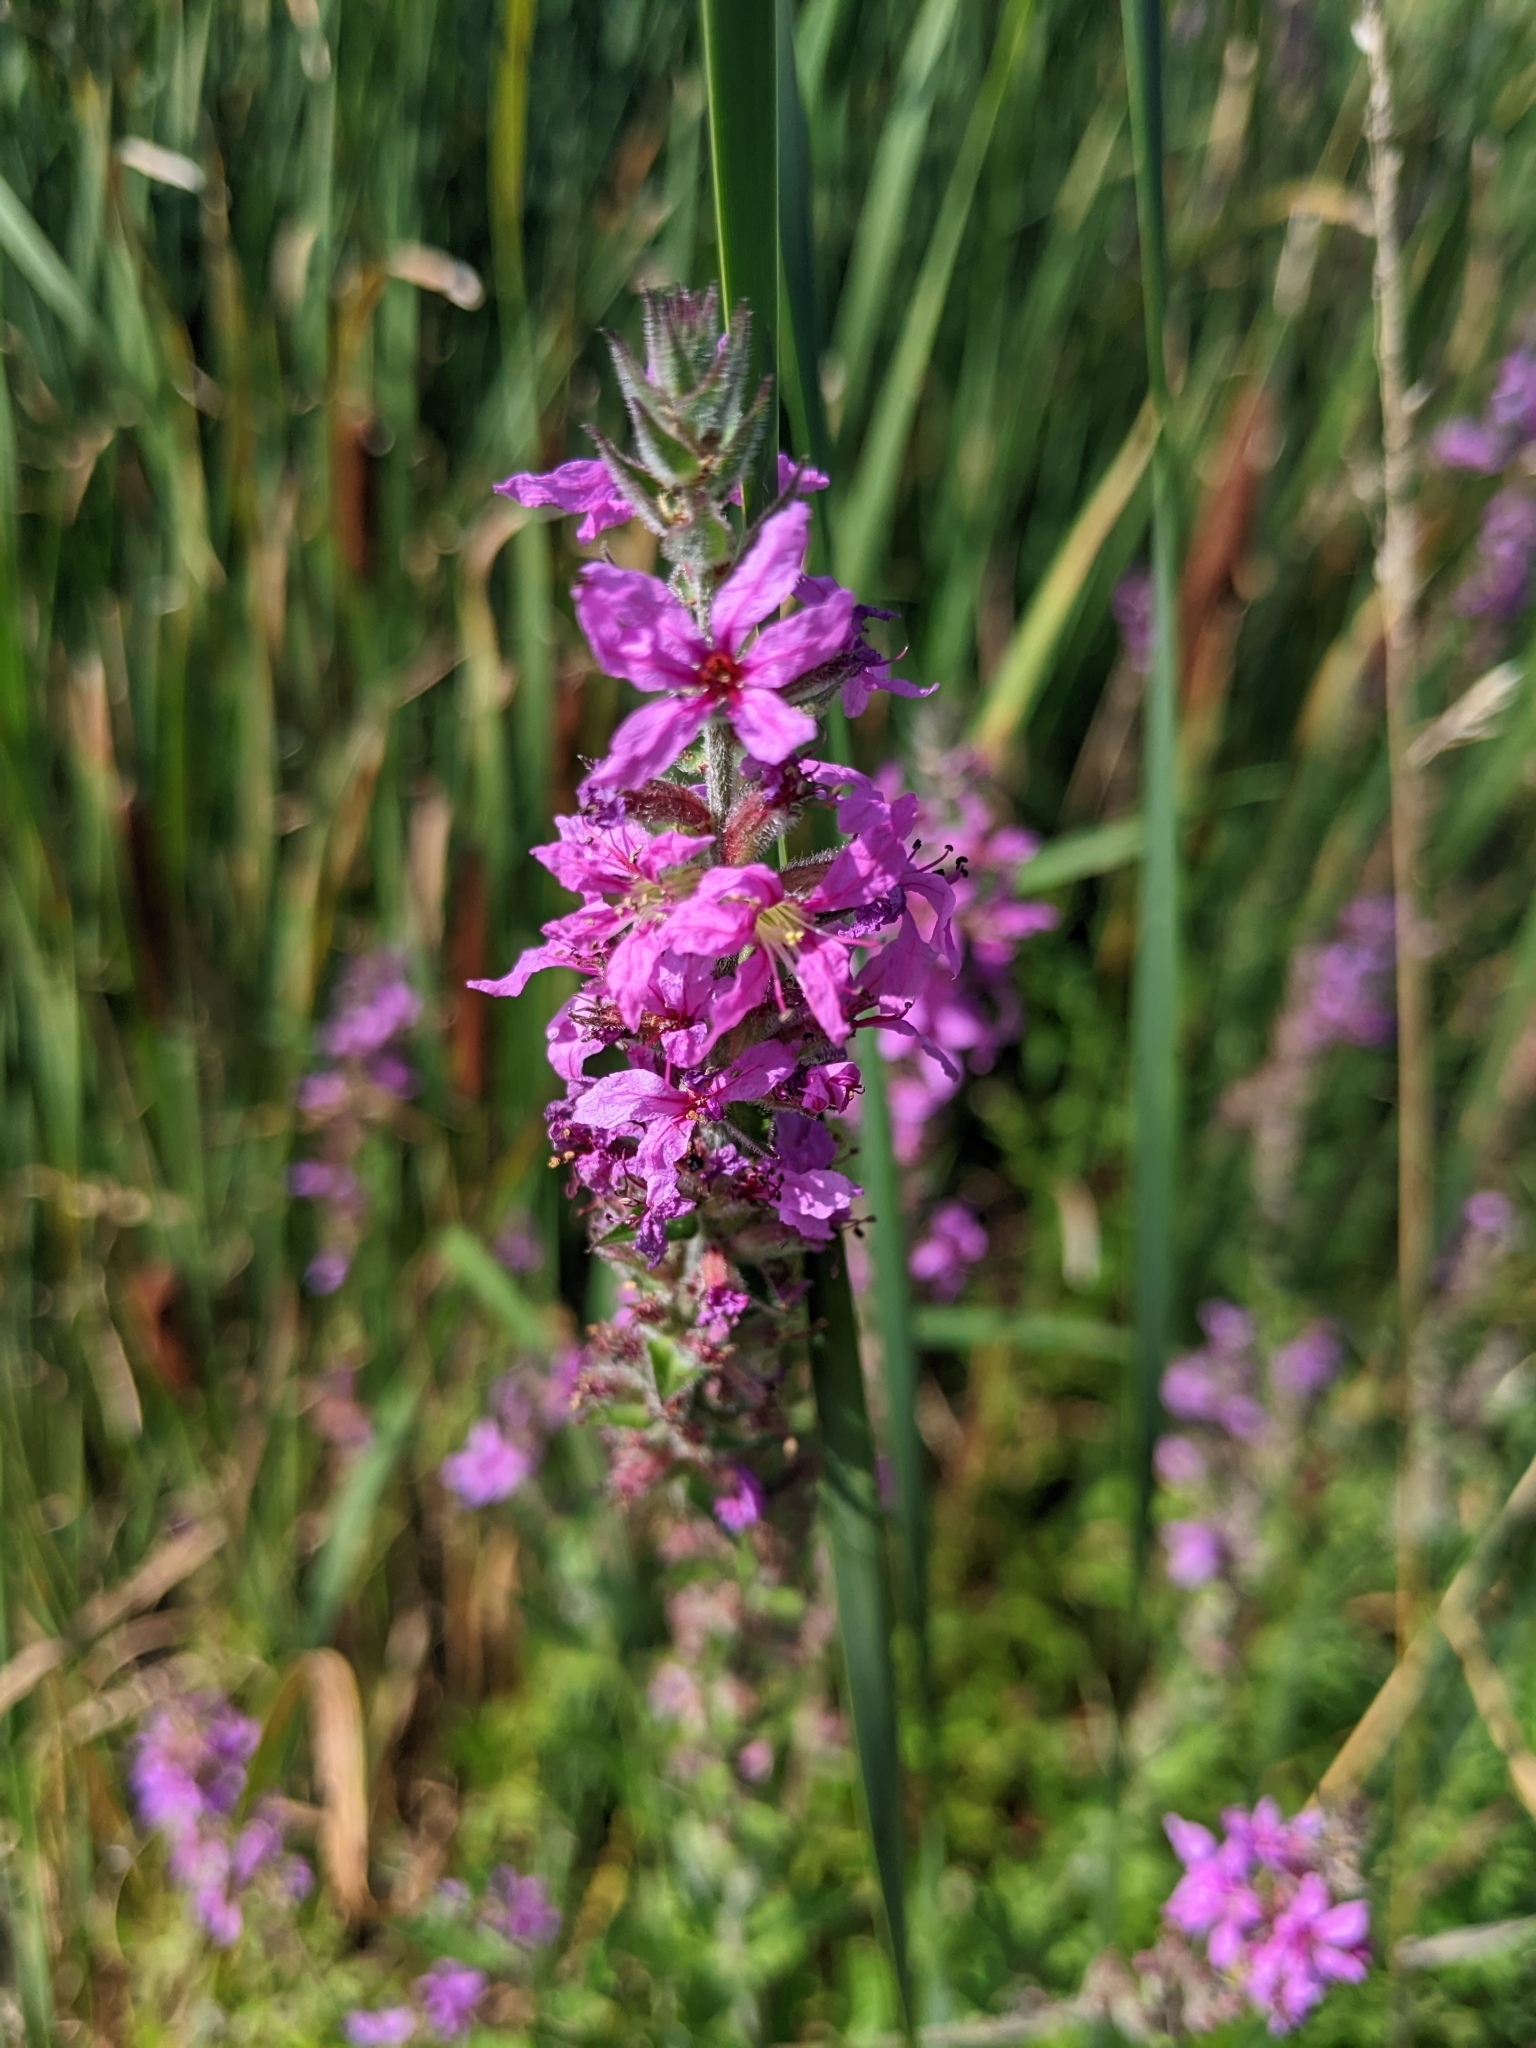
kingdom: Plantae
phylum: Tracheophyta
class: Magnoliopsida
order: Myrtales
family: Lythraceae
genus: Lythrum
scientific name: Lythrum salicaria
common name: Purple loosestrife
